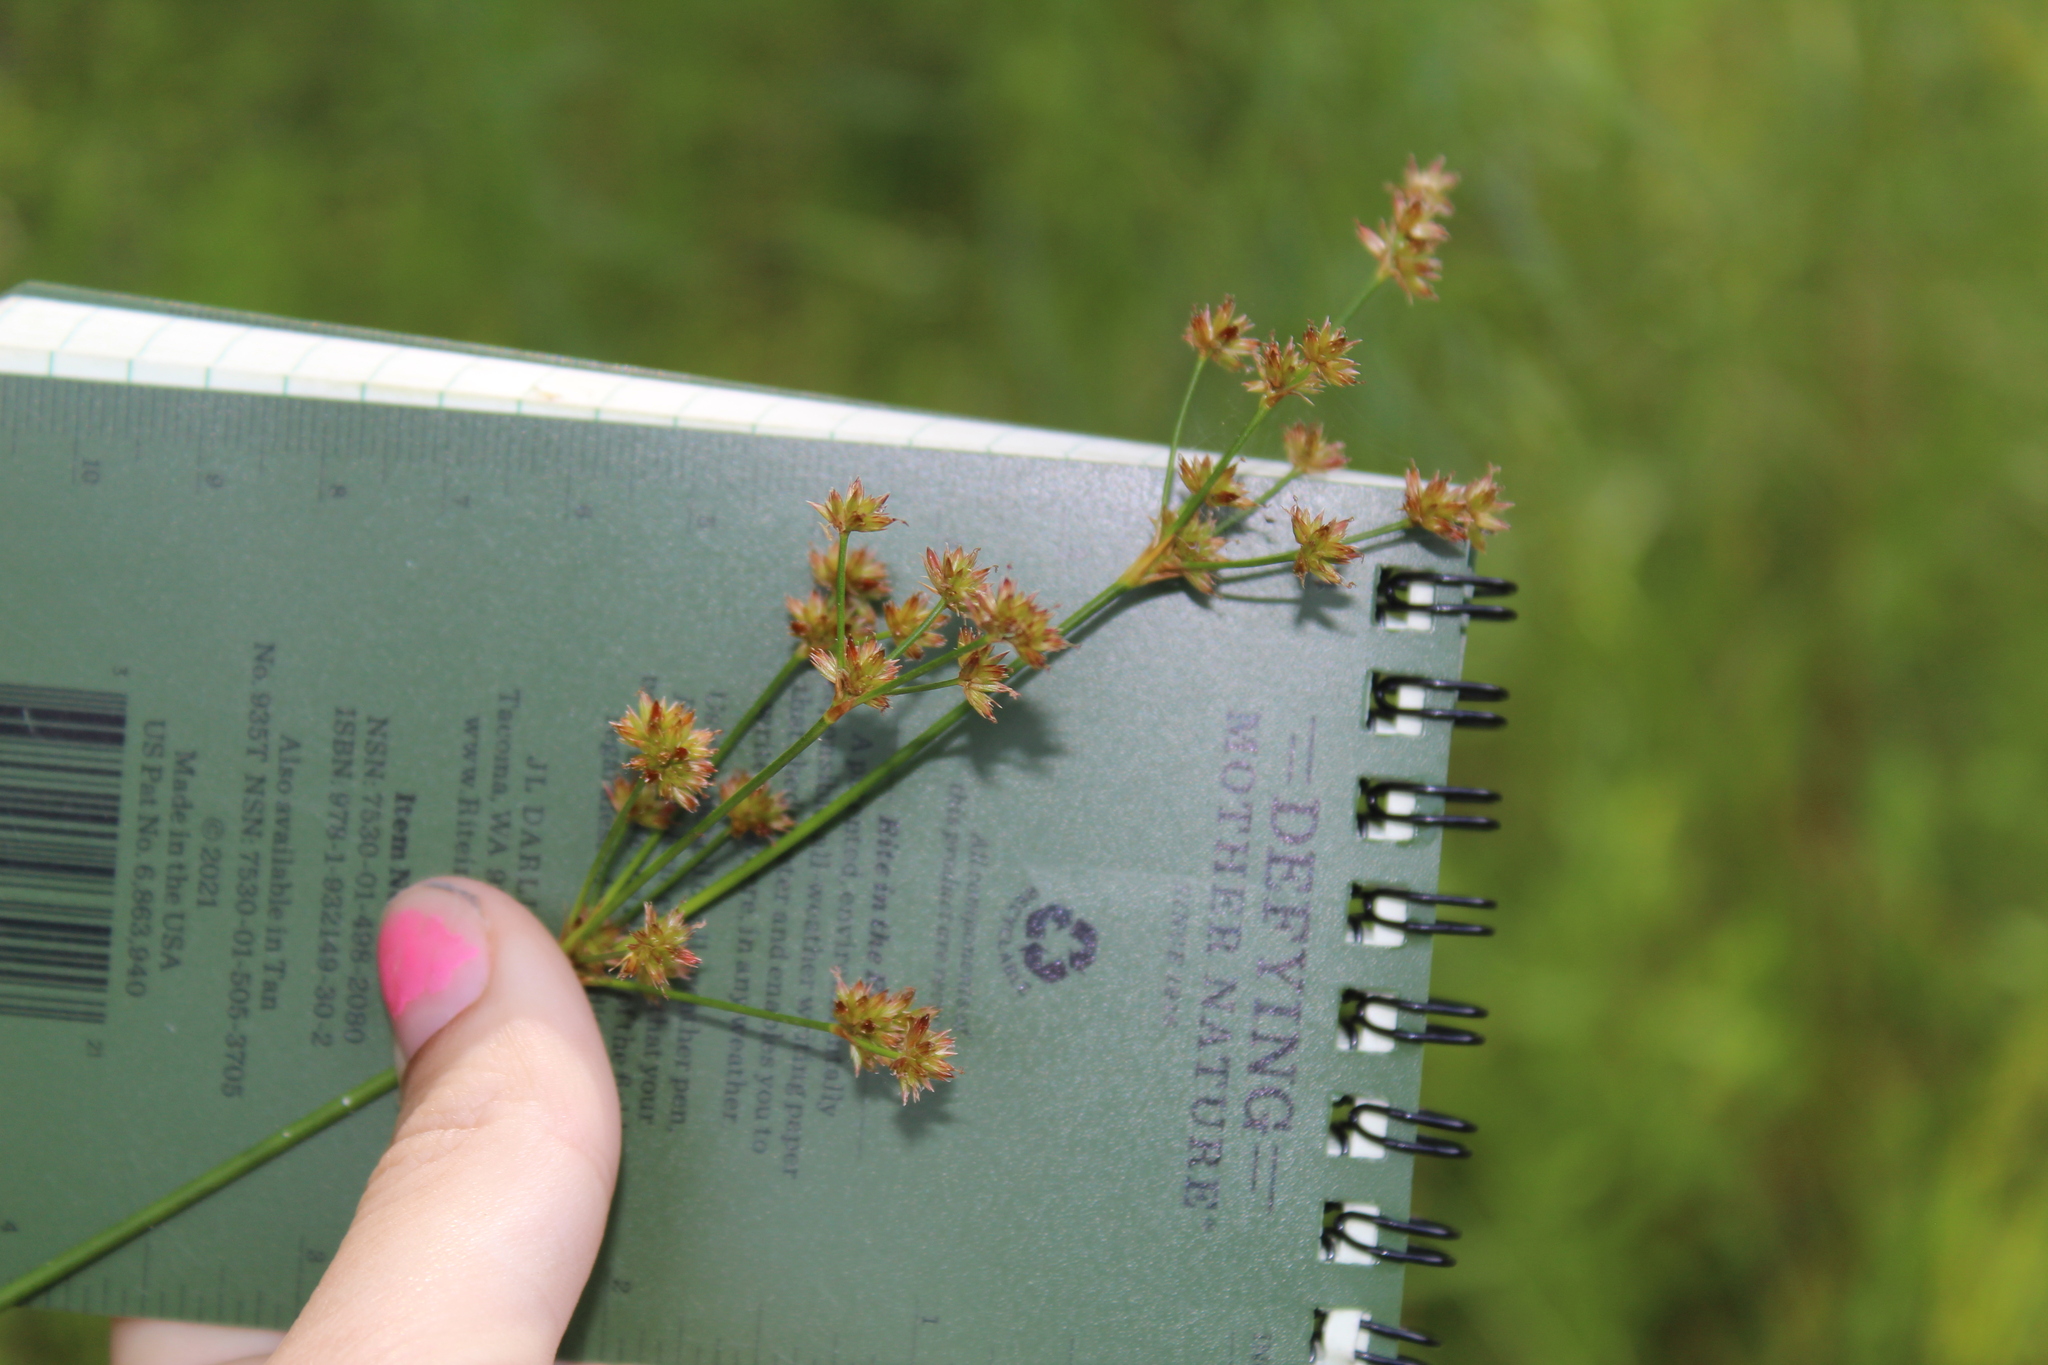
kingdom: Plantae
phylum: Tracheophyta
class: Liliopsida
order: Poales
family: Juncaceae
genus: Juncus
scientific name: Juncus canadensis
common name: Canada rush
